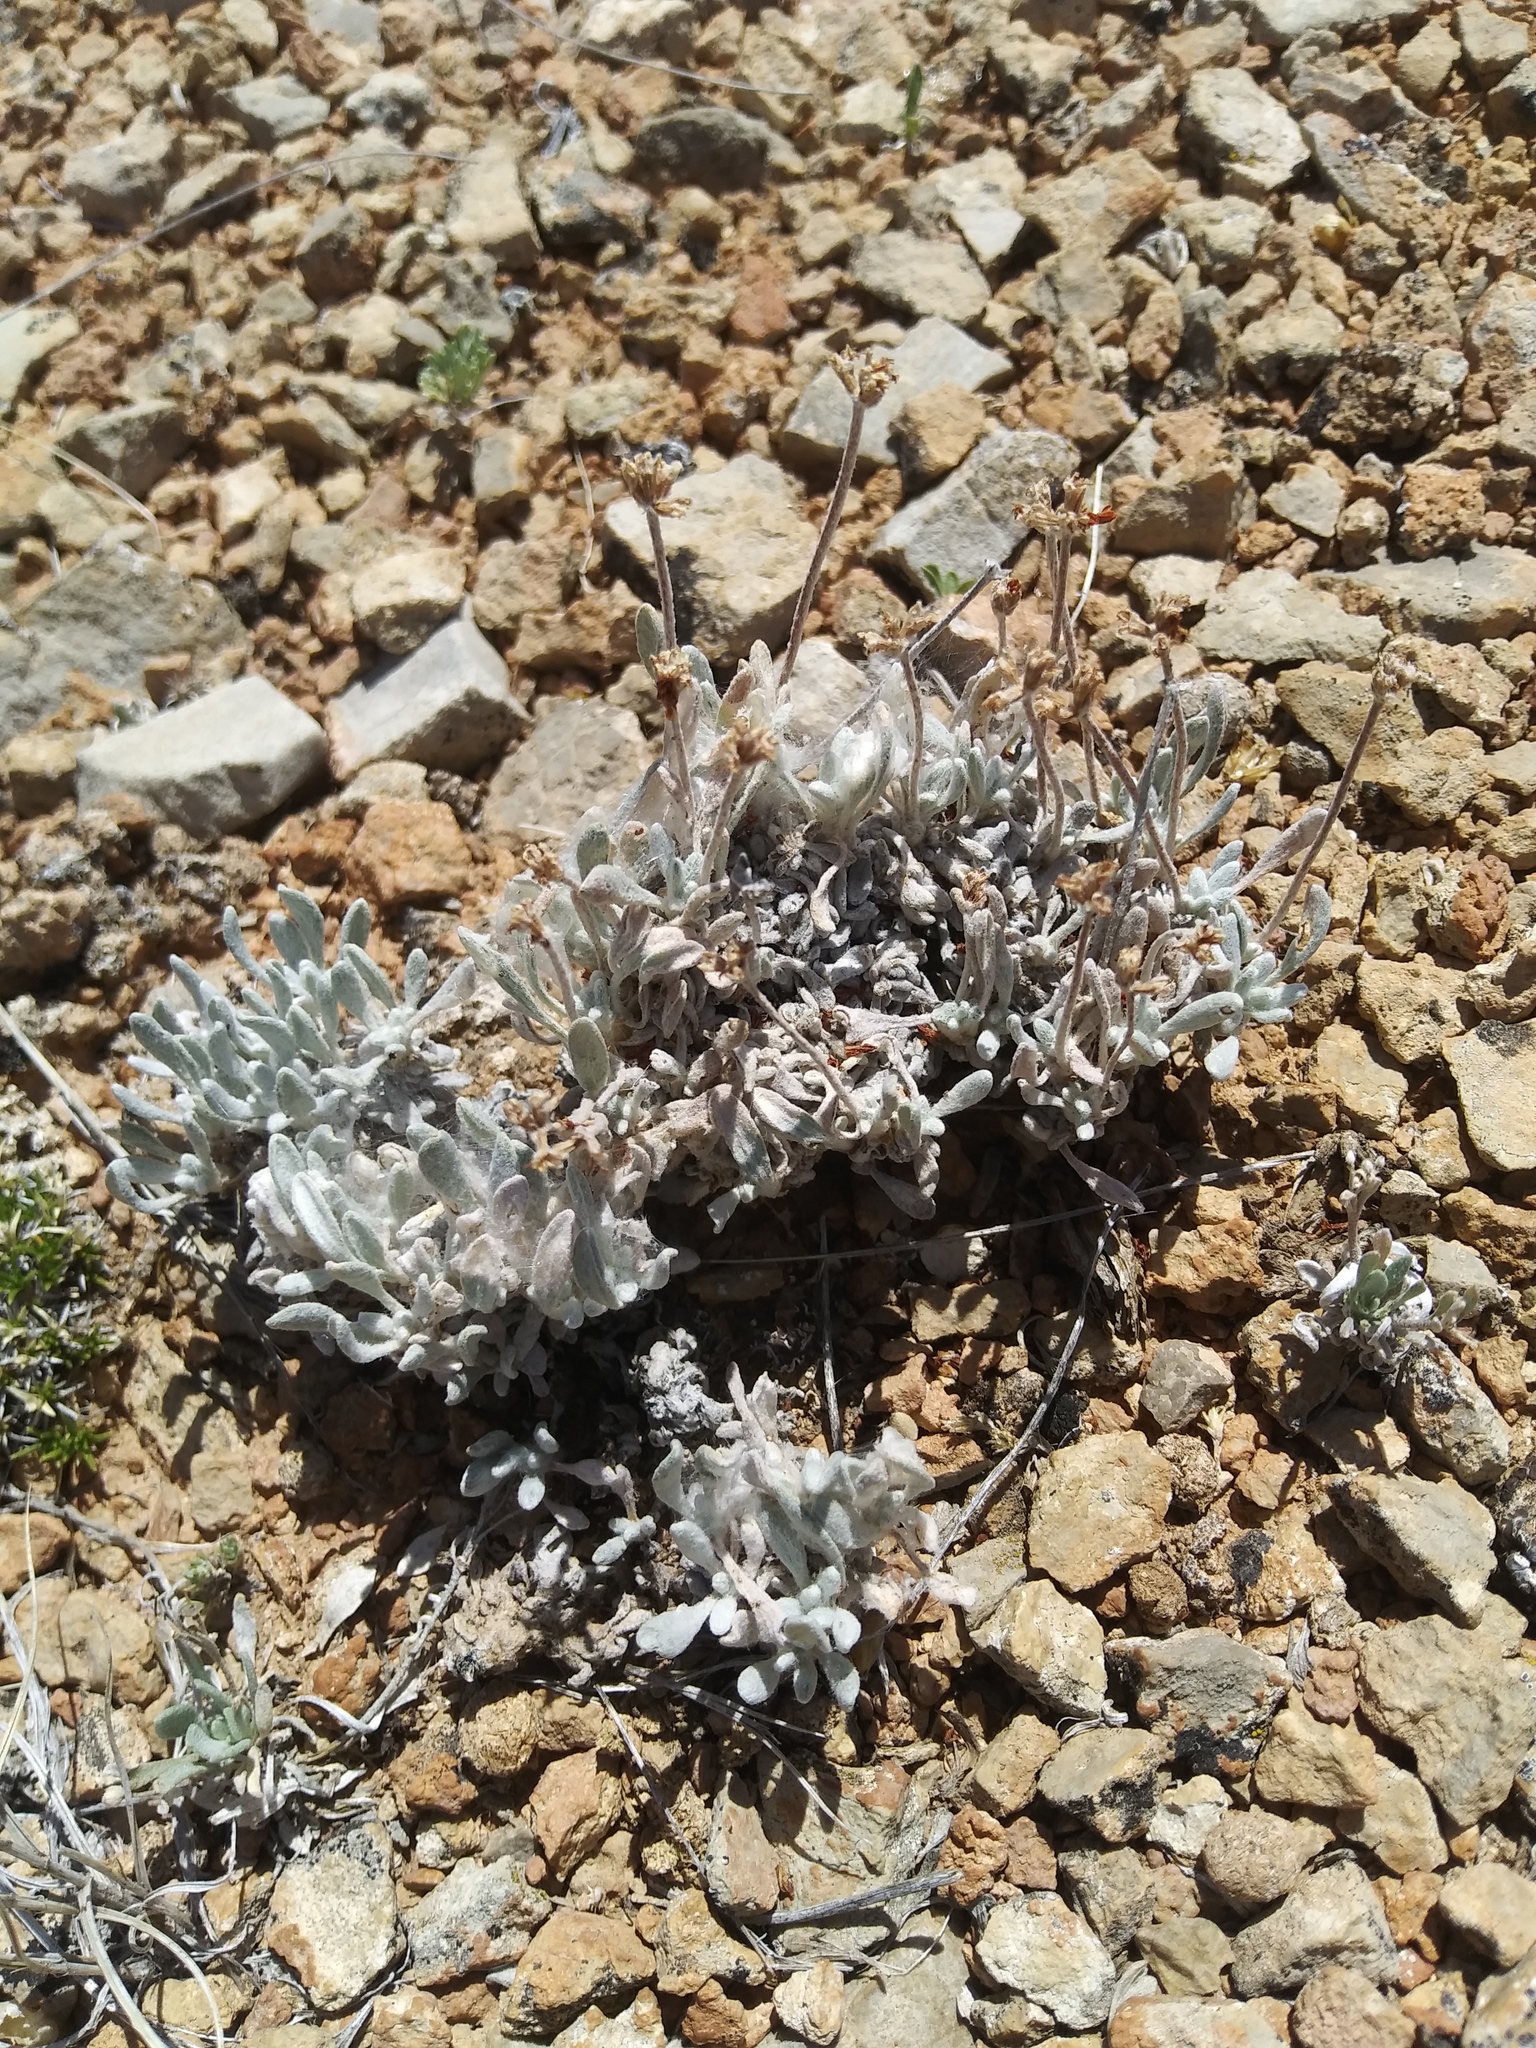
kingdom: Plantae
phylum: Tracheophyta
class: Magnoliopsida
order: Caryophyllales
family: Polygonaceae
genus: Eriogonum
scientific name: Eriogonum pauciflorum
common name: Few-flower wild buckwheat
